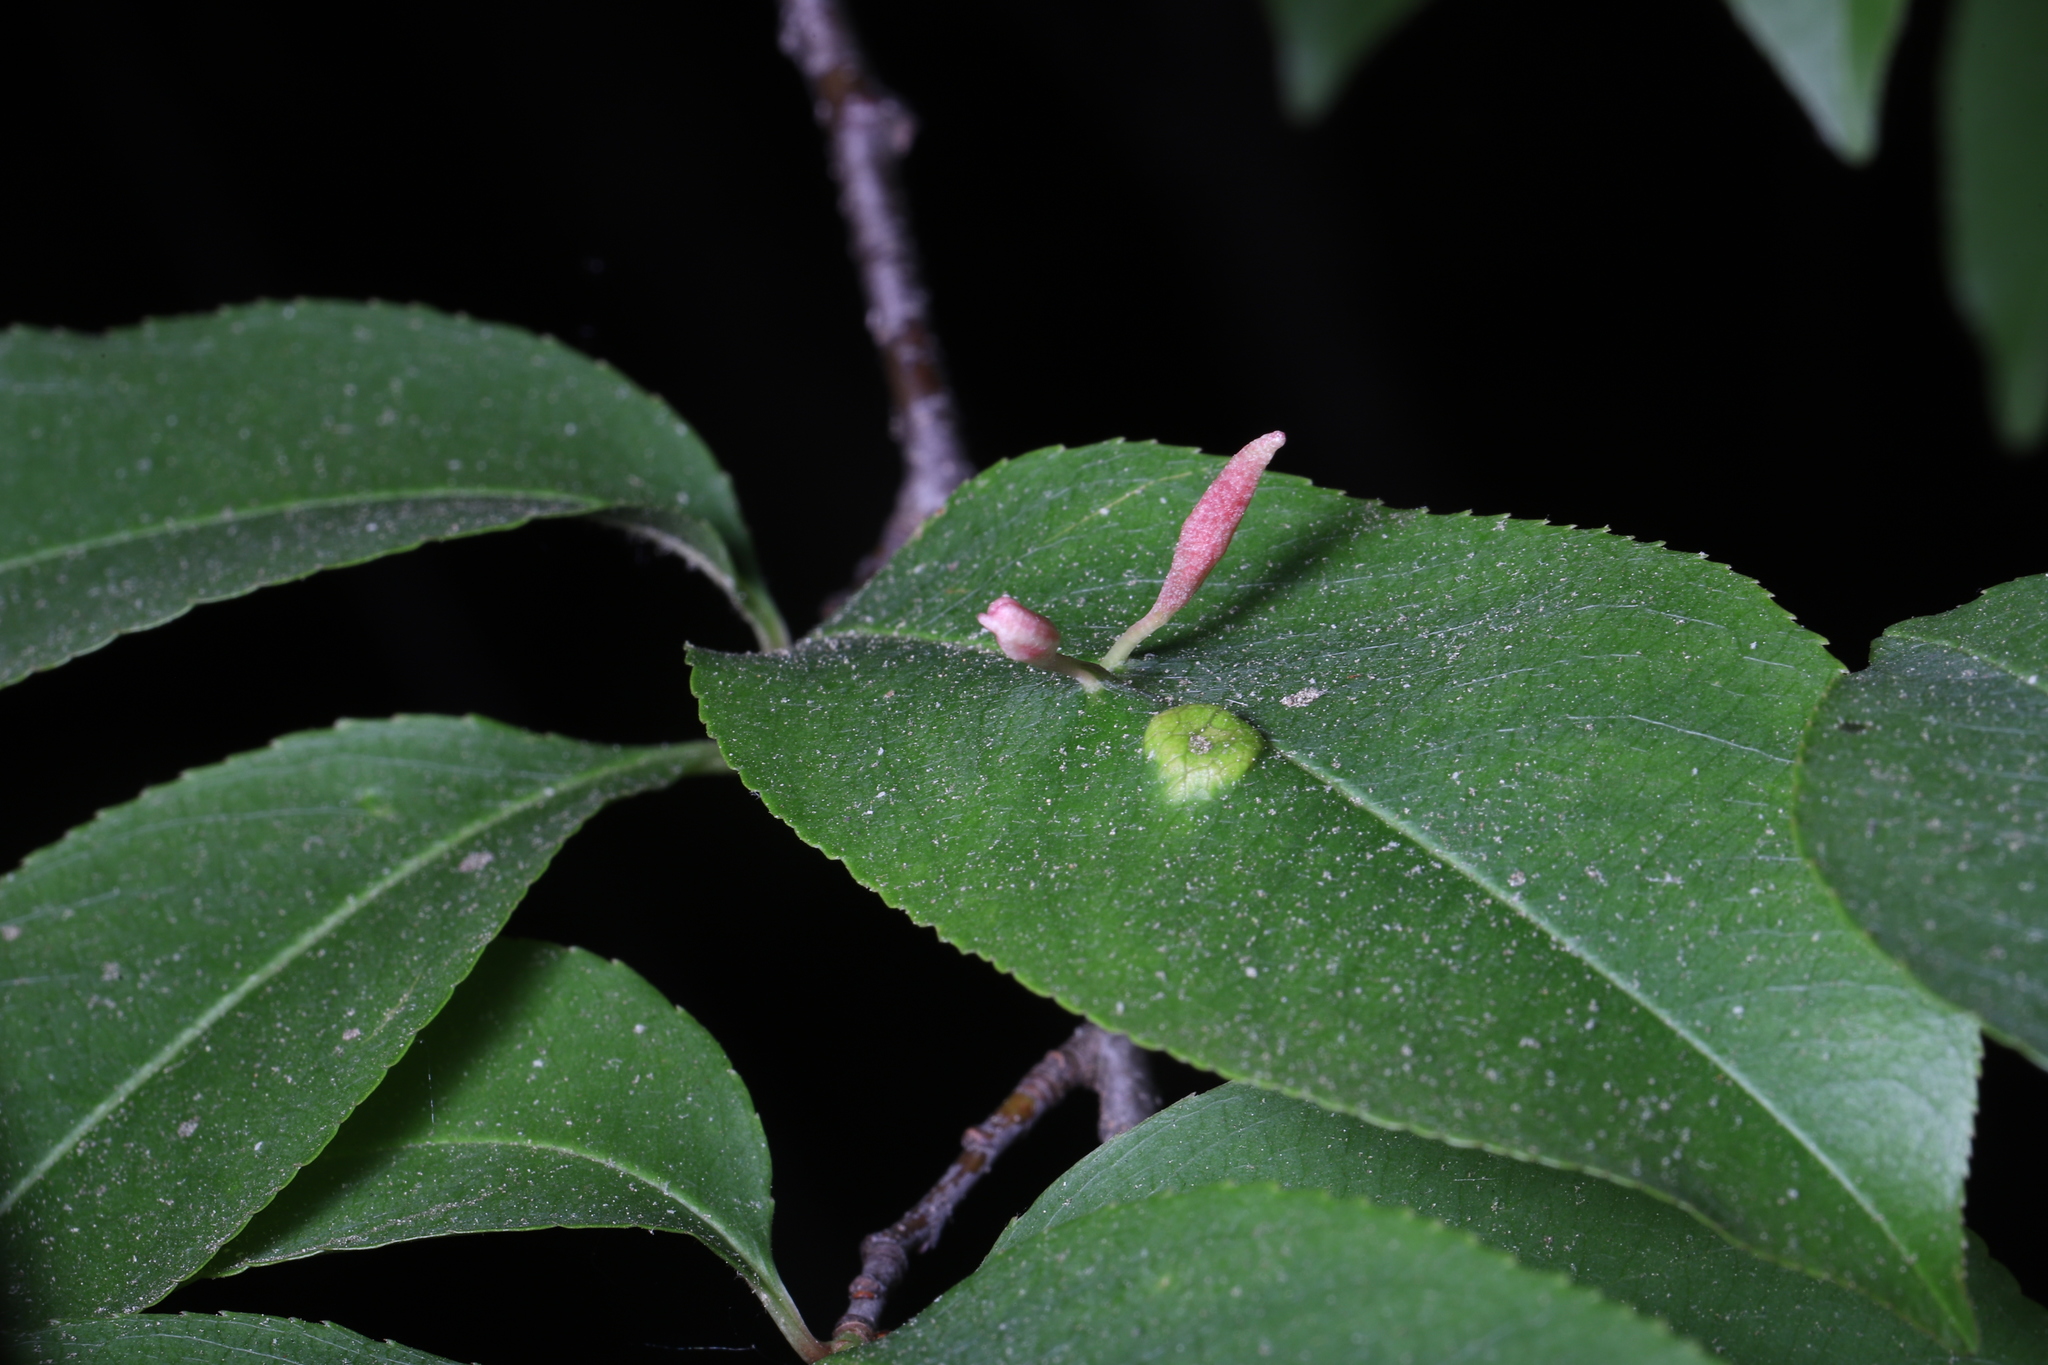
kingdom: Animalia
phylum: Arthropoda
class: Arachnida
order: Trombidiformes
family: Eriophyidae
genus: Eriophyes
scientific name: Eriophyes
